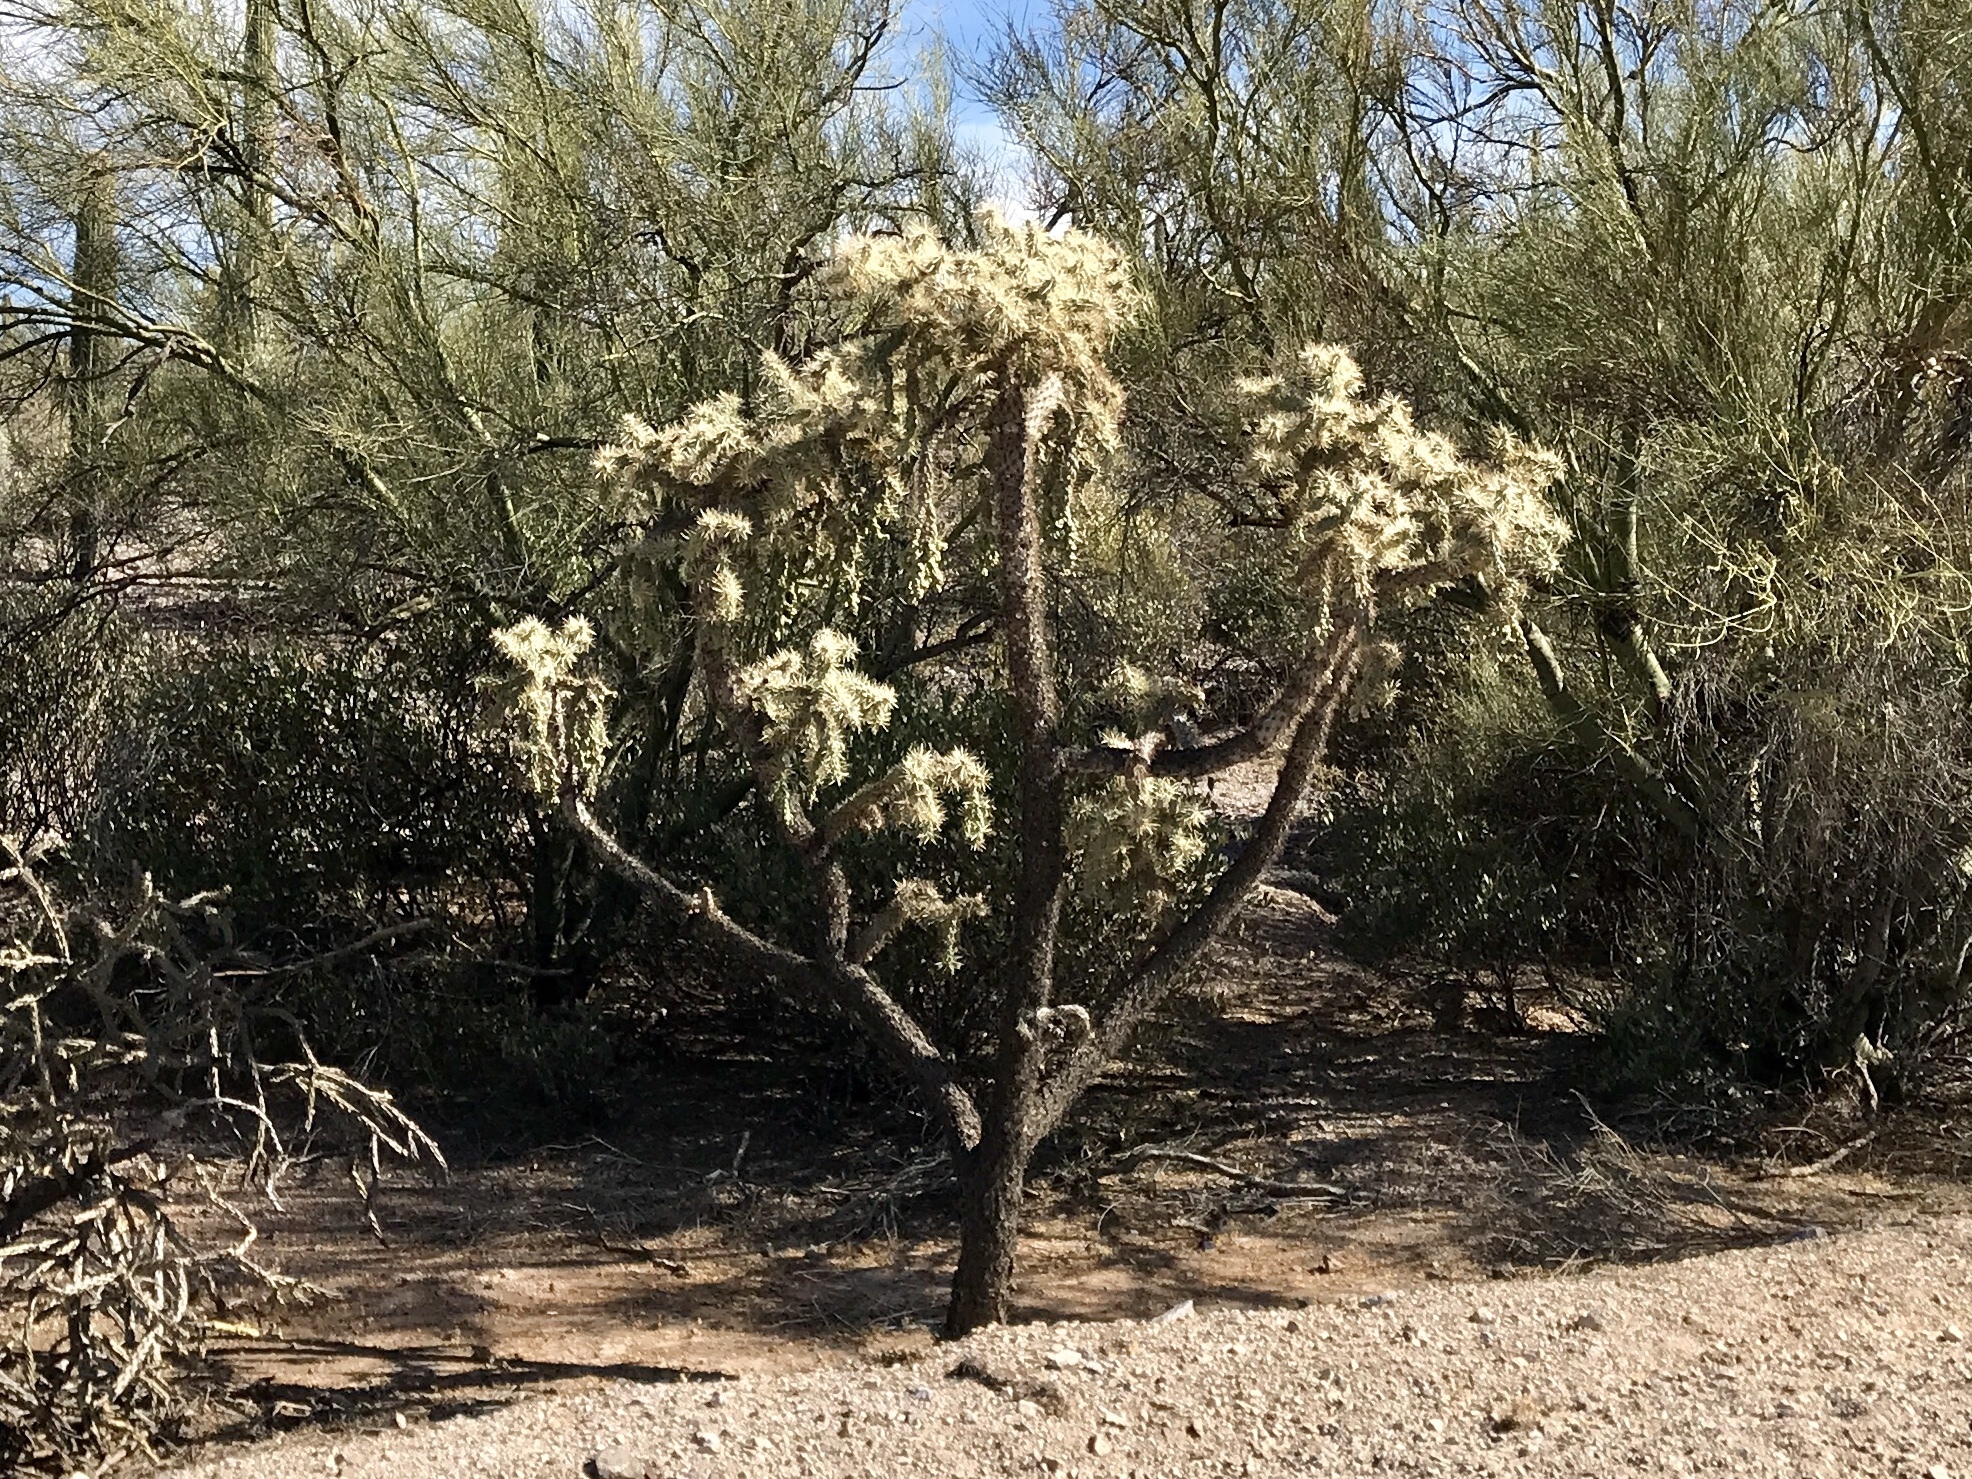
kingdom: Plantae
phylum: Tracheophyta
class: Magnoliopsida
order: Caryophyllales
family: Cactaceae
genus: Cylindropuntia
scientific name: Cylindropuntia fulgida
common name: Jumping cholla
